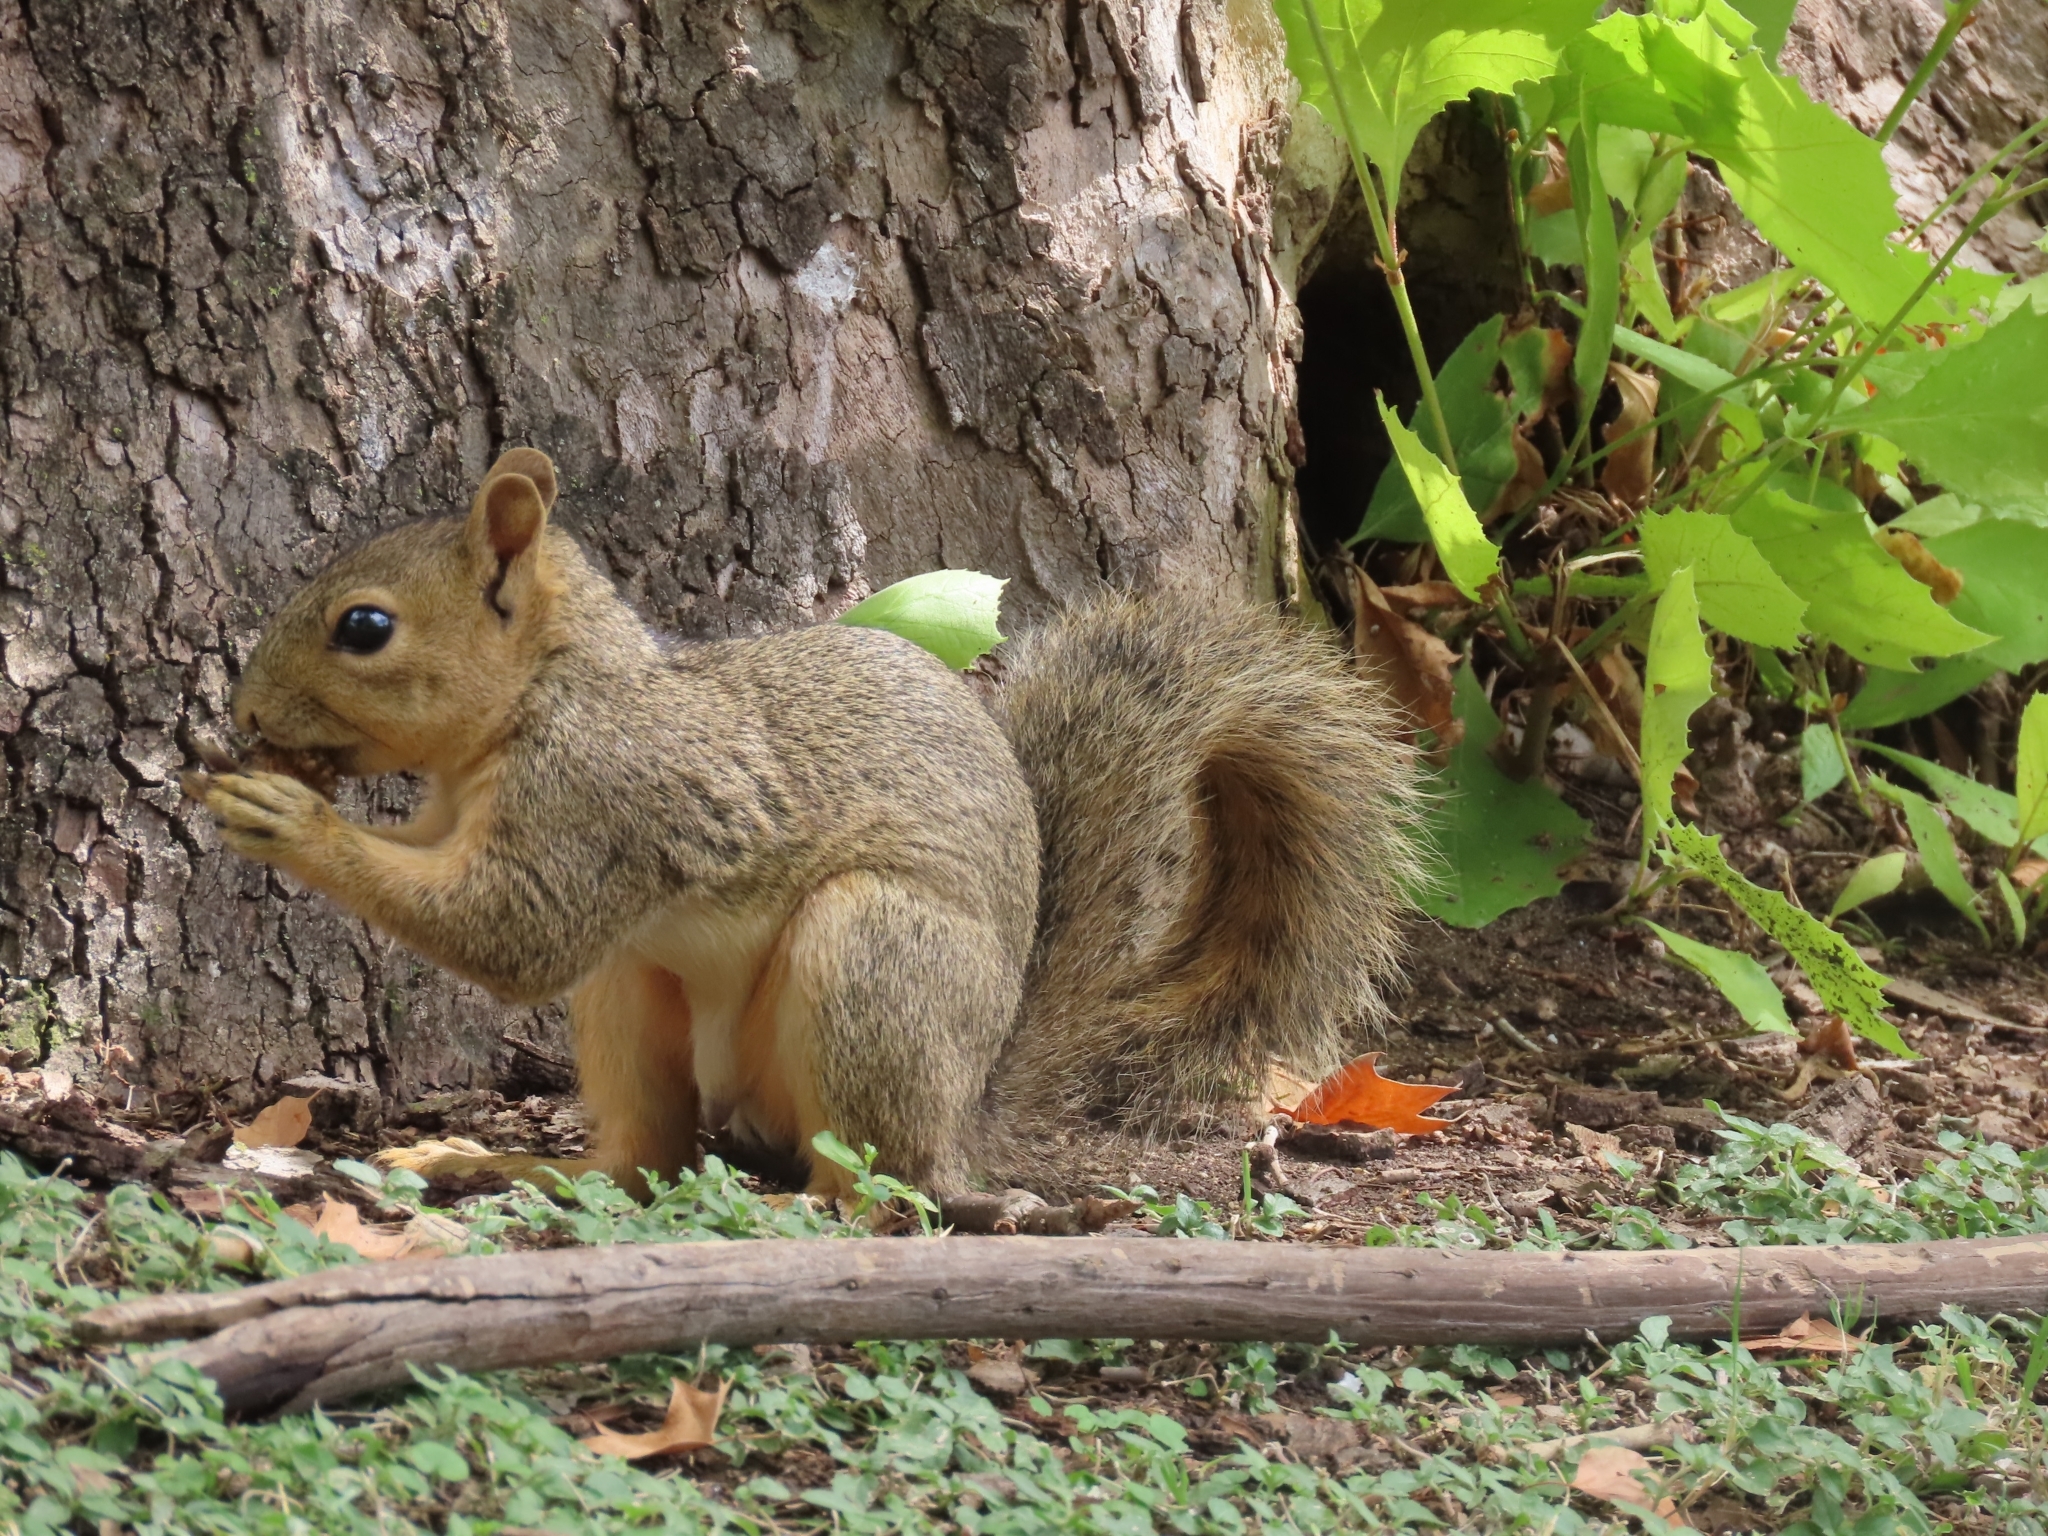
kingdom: Animalia
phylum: Chordata
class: Mammalia
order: Rodentia
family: Sciuridae
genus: Sciurus
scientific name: Sciurus niger
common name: Fox squirrel
